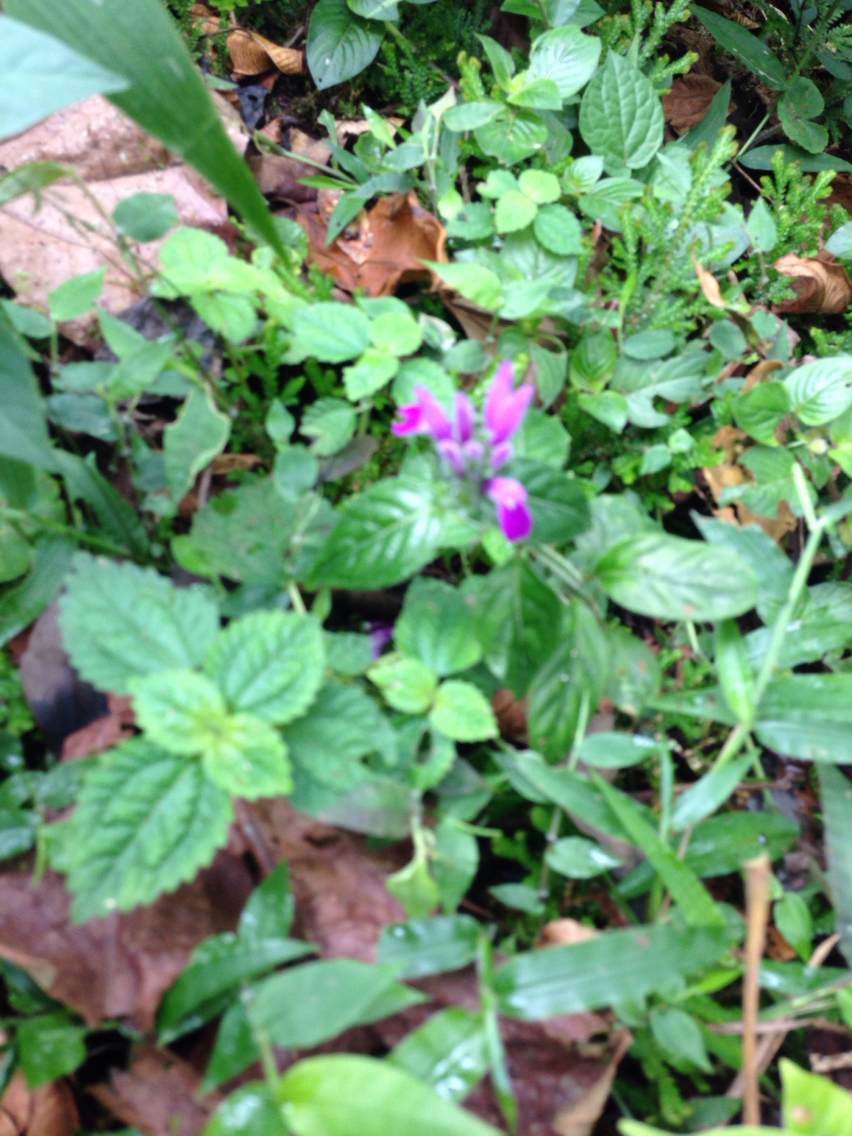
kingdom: Plantae
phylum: Tracheophyta
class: Magnoliopsida
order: Lamiales
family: Acanthaceae
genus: Justicia
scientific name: Justicia brenesii
